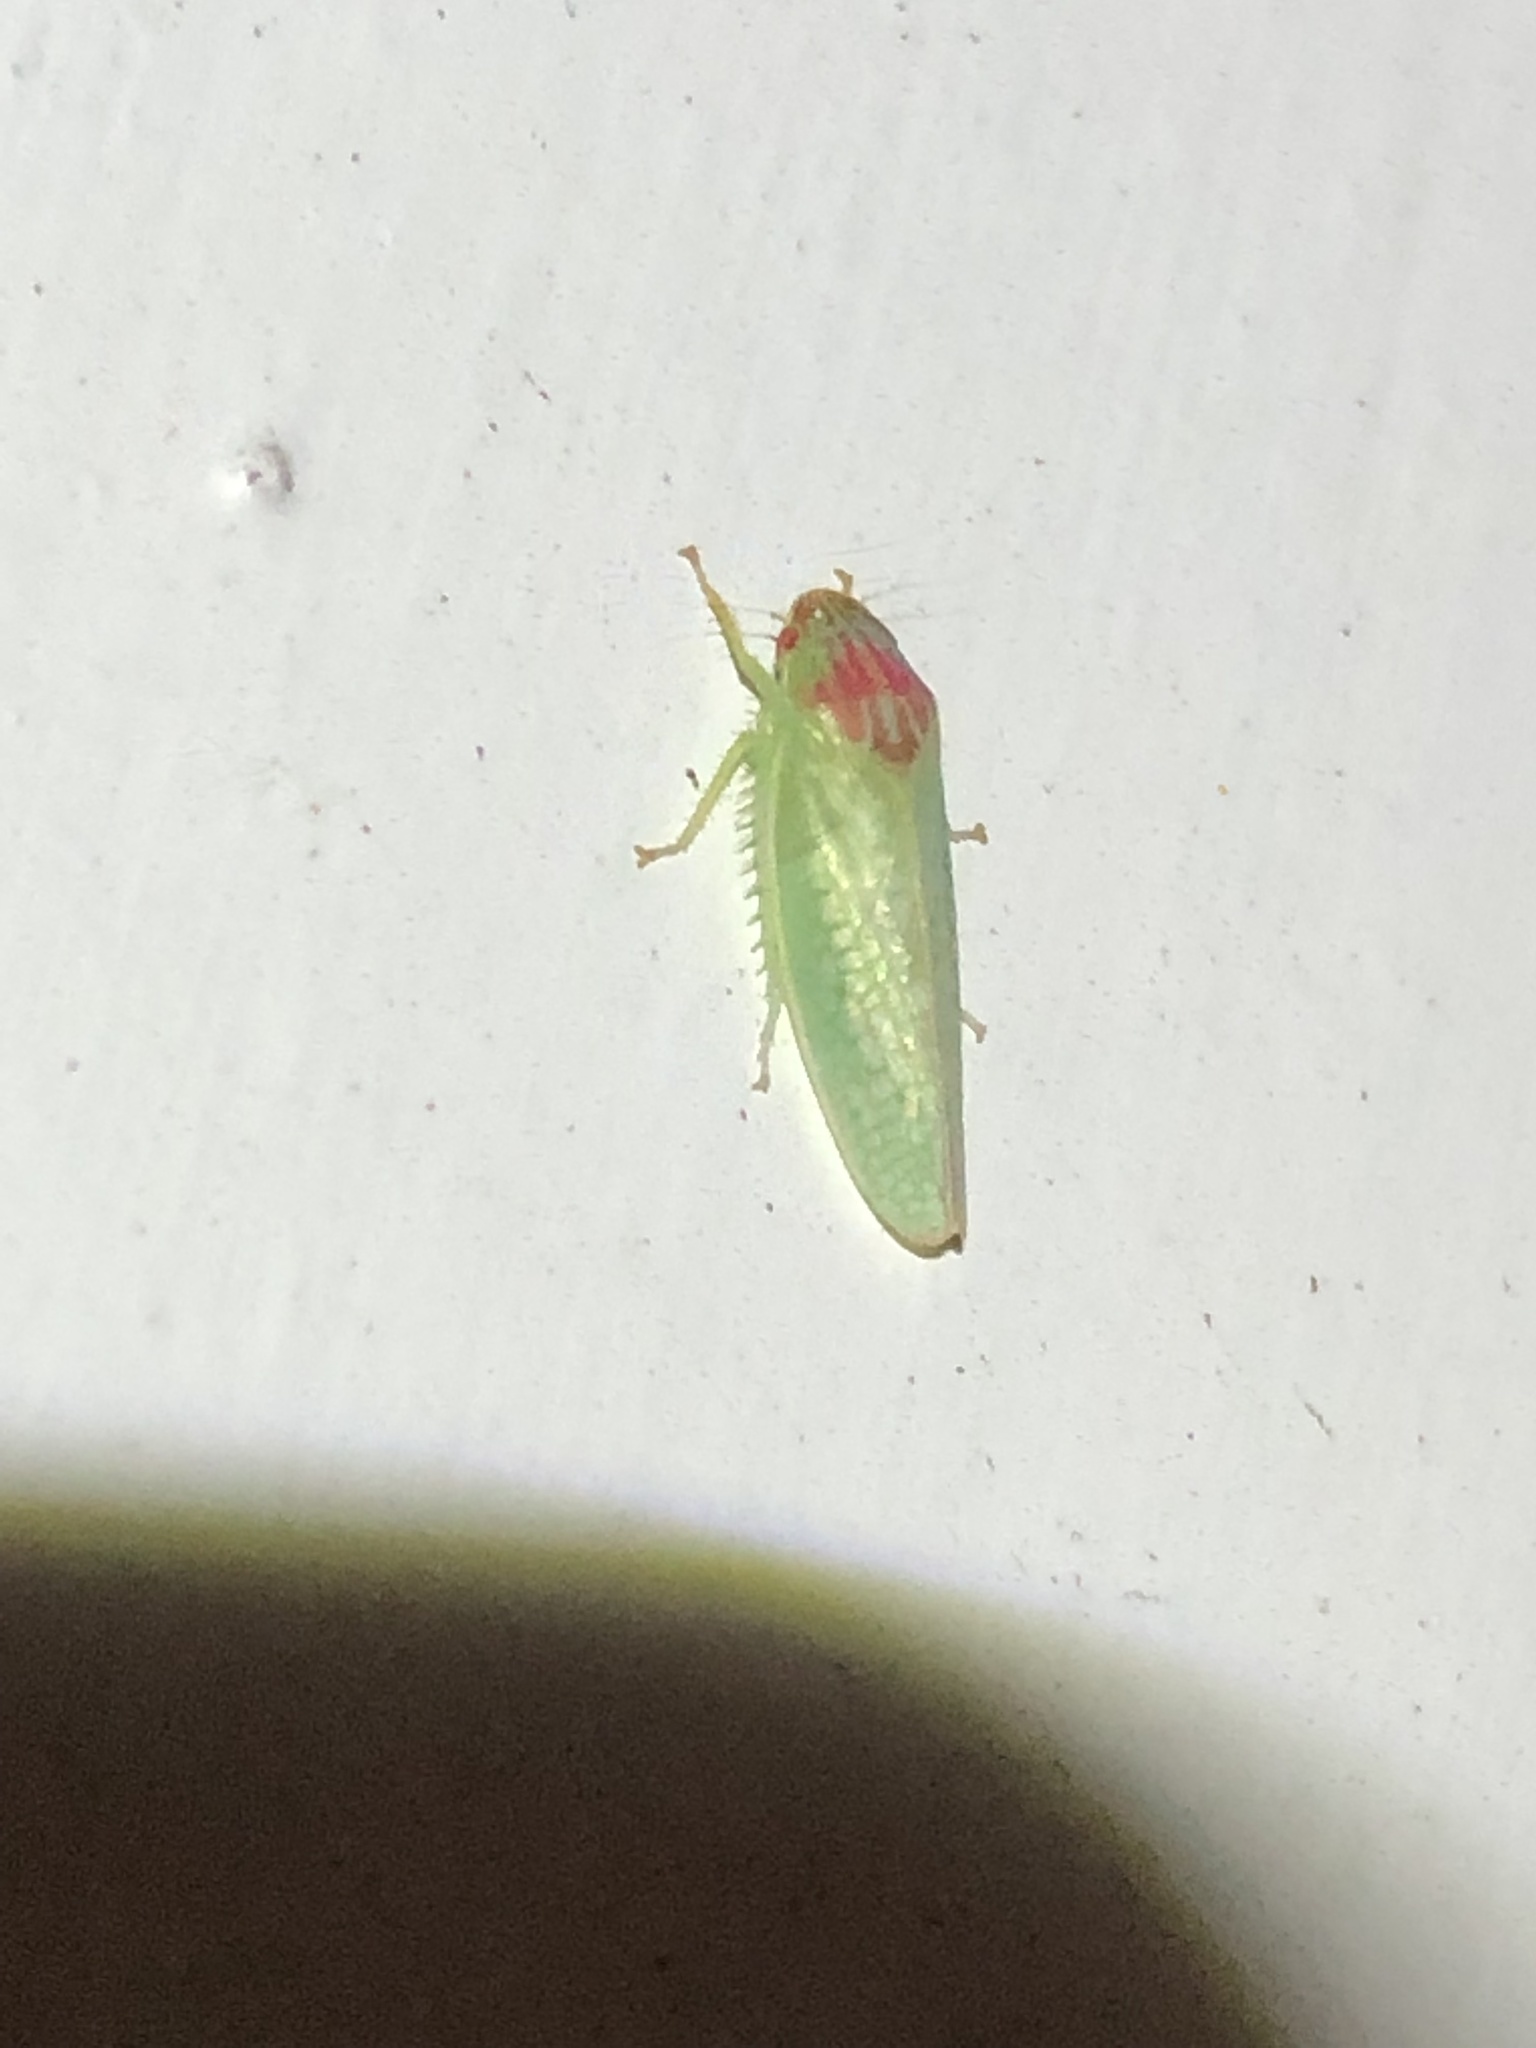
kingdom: Animalia
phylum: Arthropoda
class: Insecta
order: Hemiptera
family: Cicadellidae
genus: Gyponana
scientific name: Gyponana octolineata
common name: Eight-lined leafhopper
